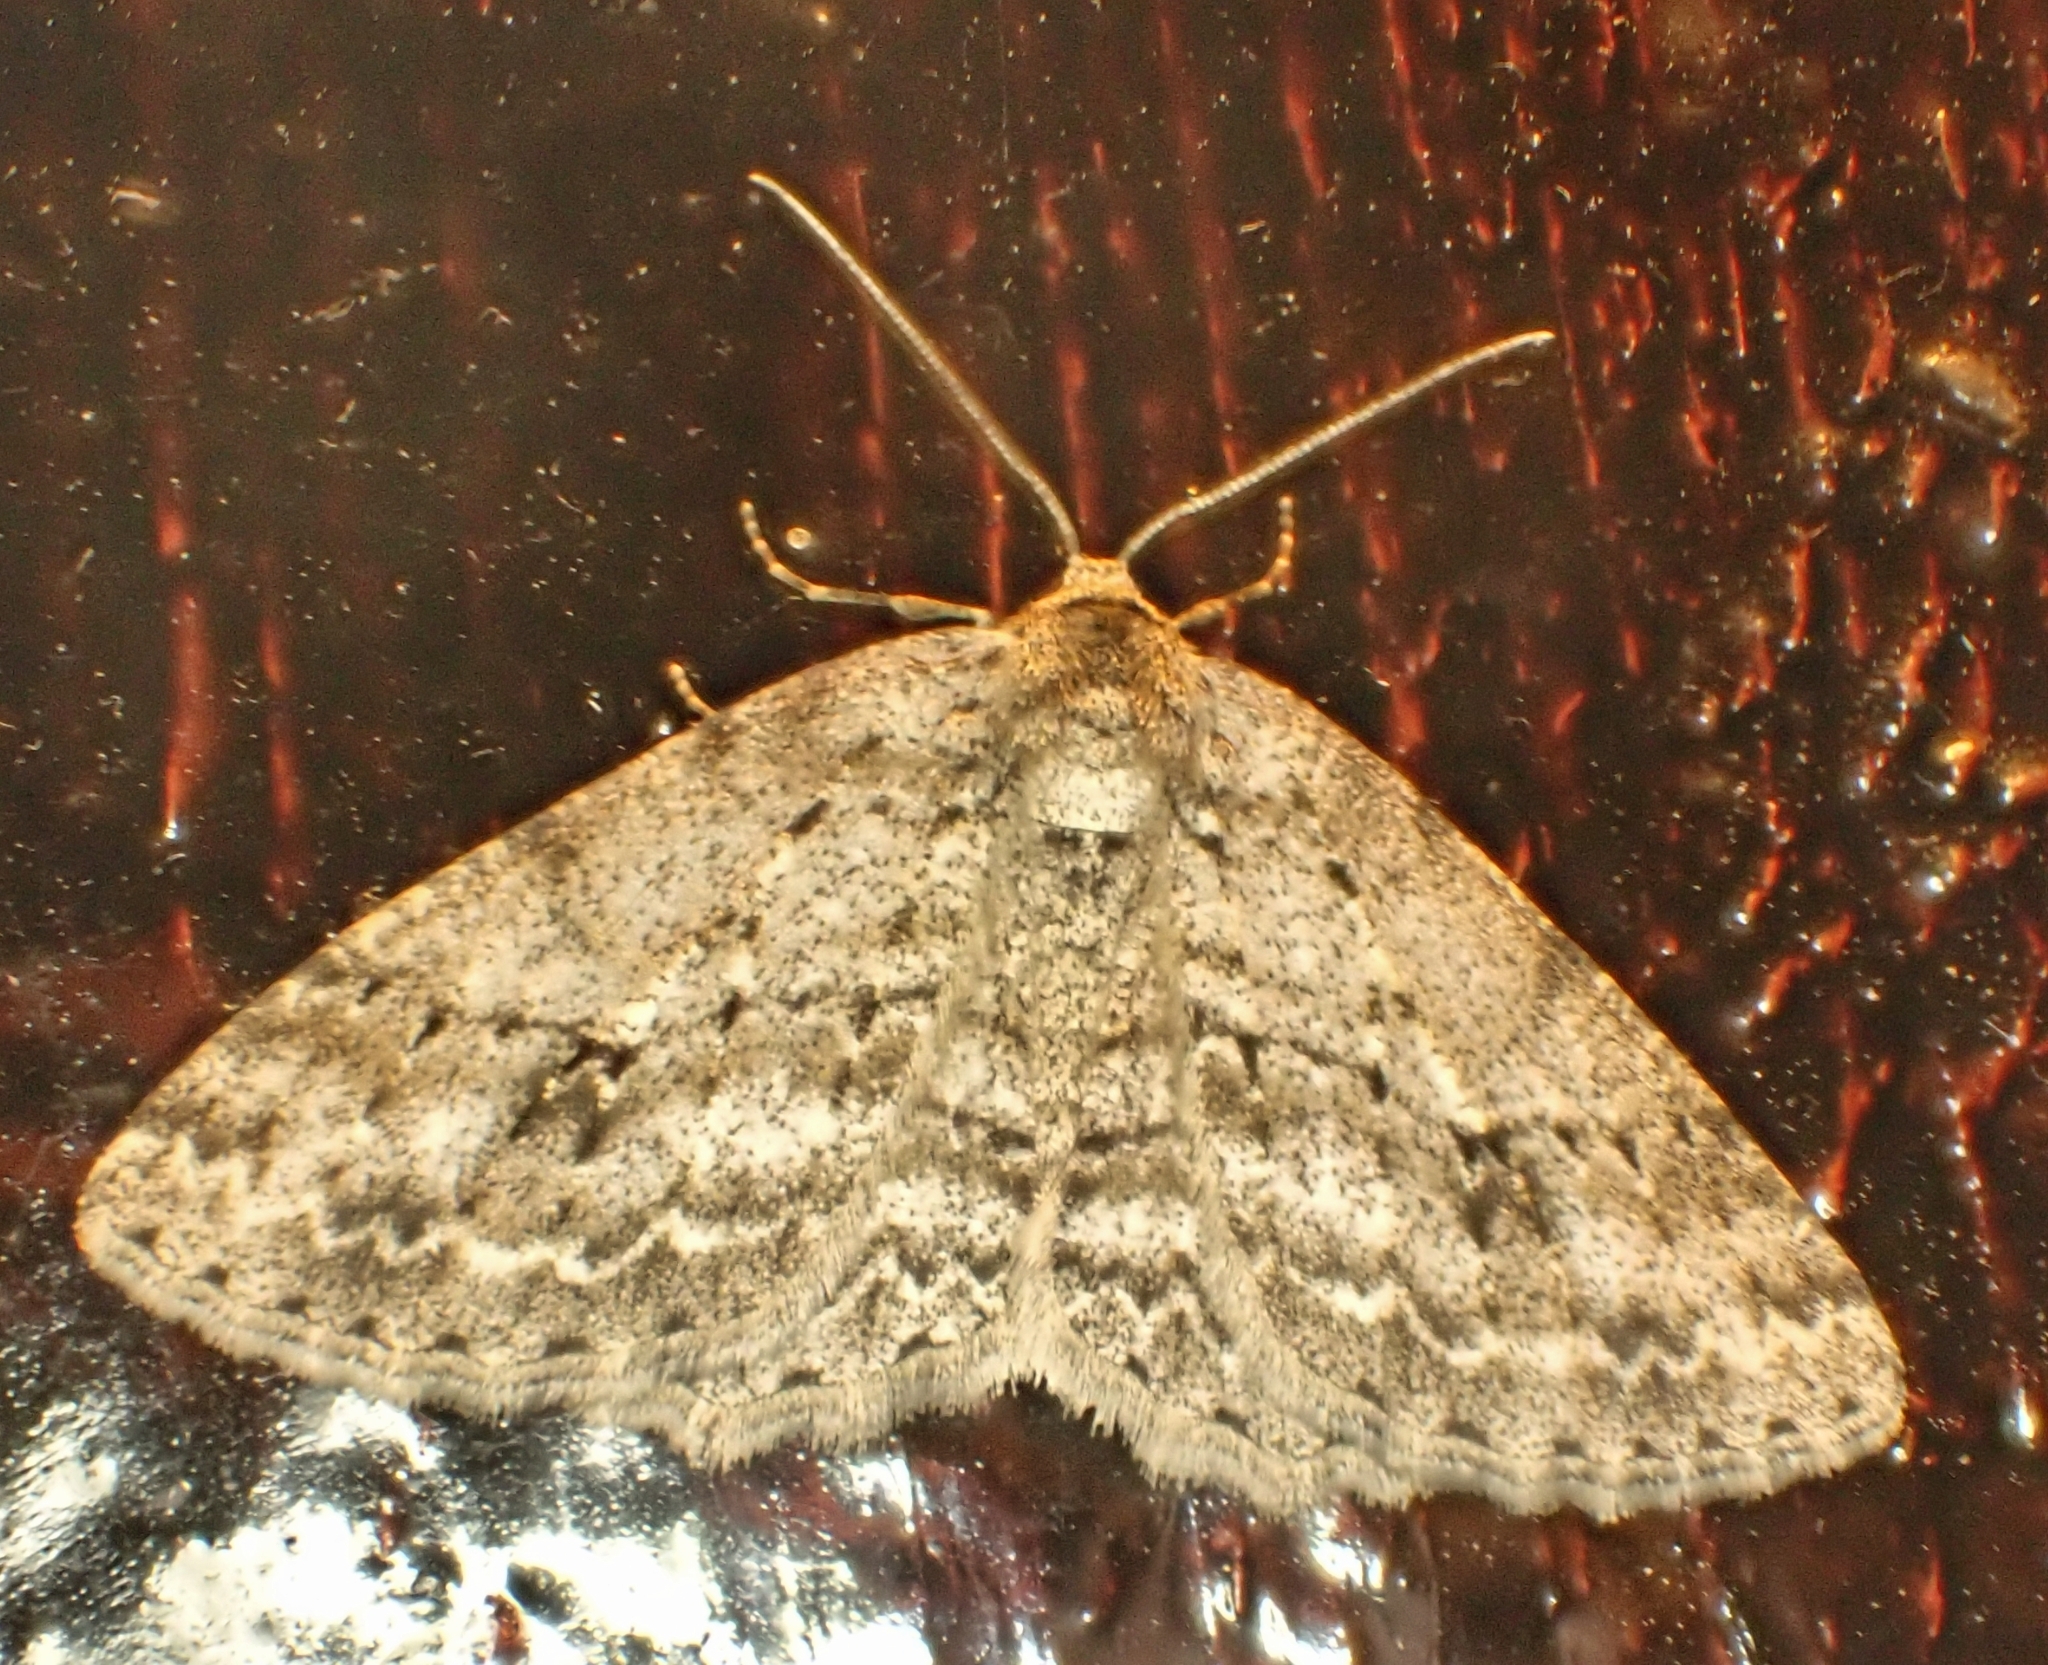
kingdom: Animalia
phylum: Arthropoda
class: Insecta
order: Lepidoptera
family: Geometridae
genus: Ectropis
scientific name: Ectropis crepuscularia
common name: Engrailed
